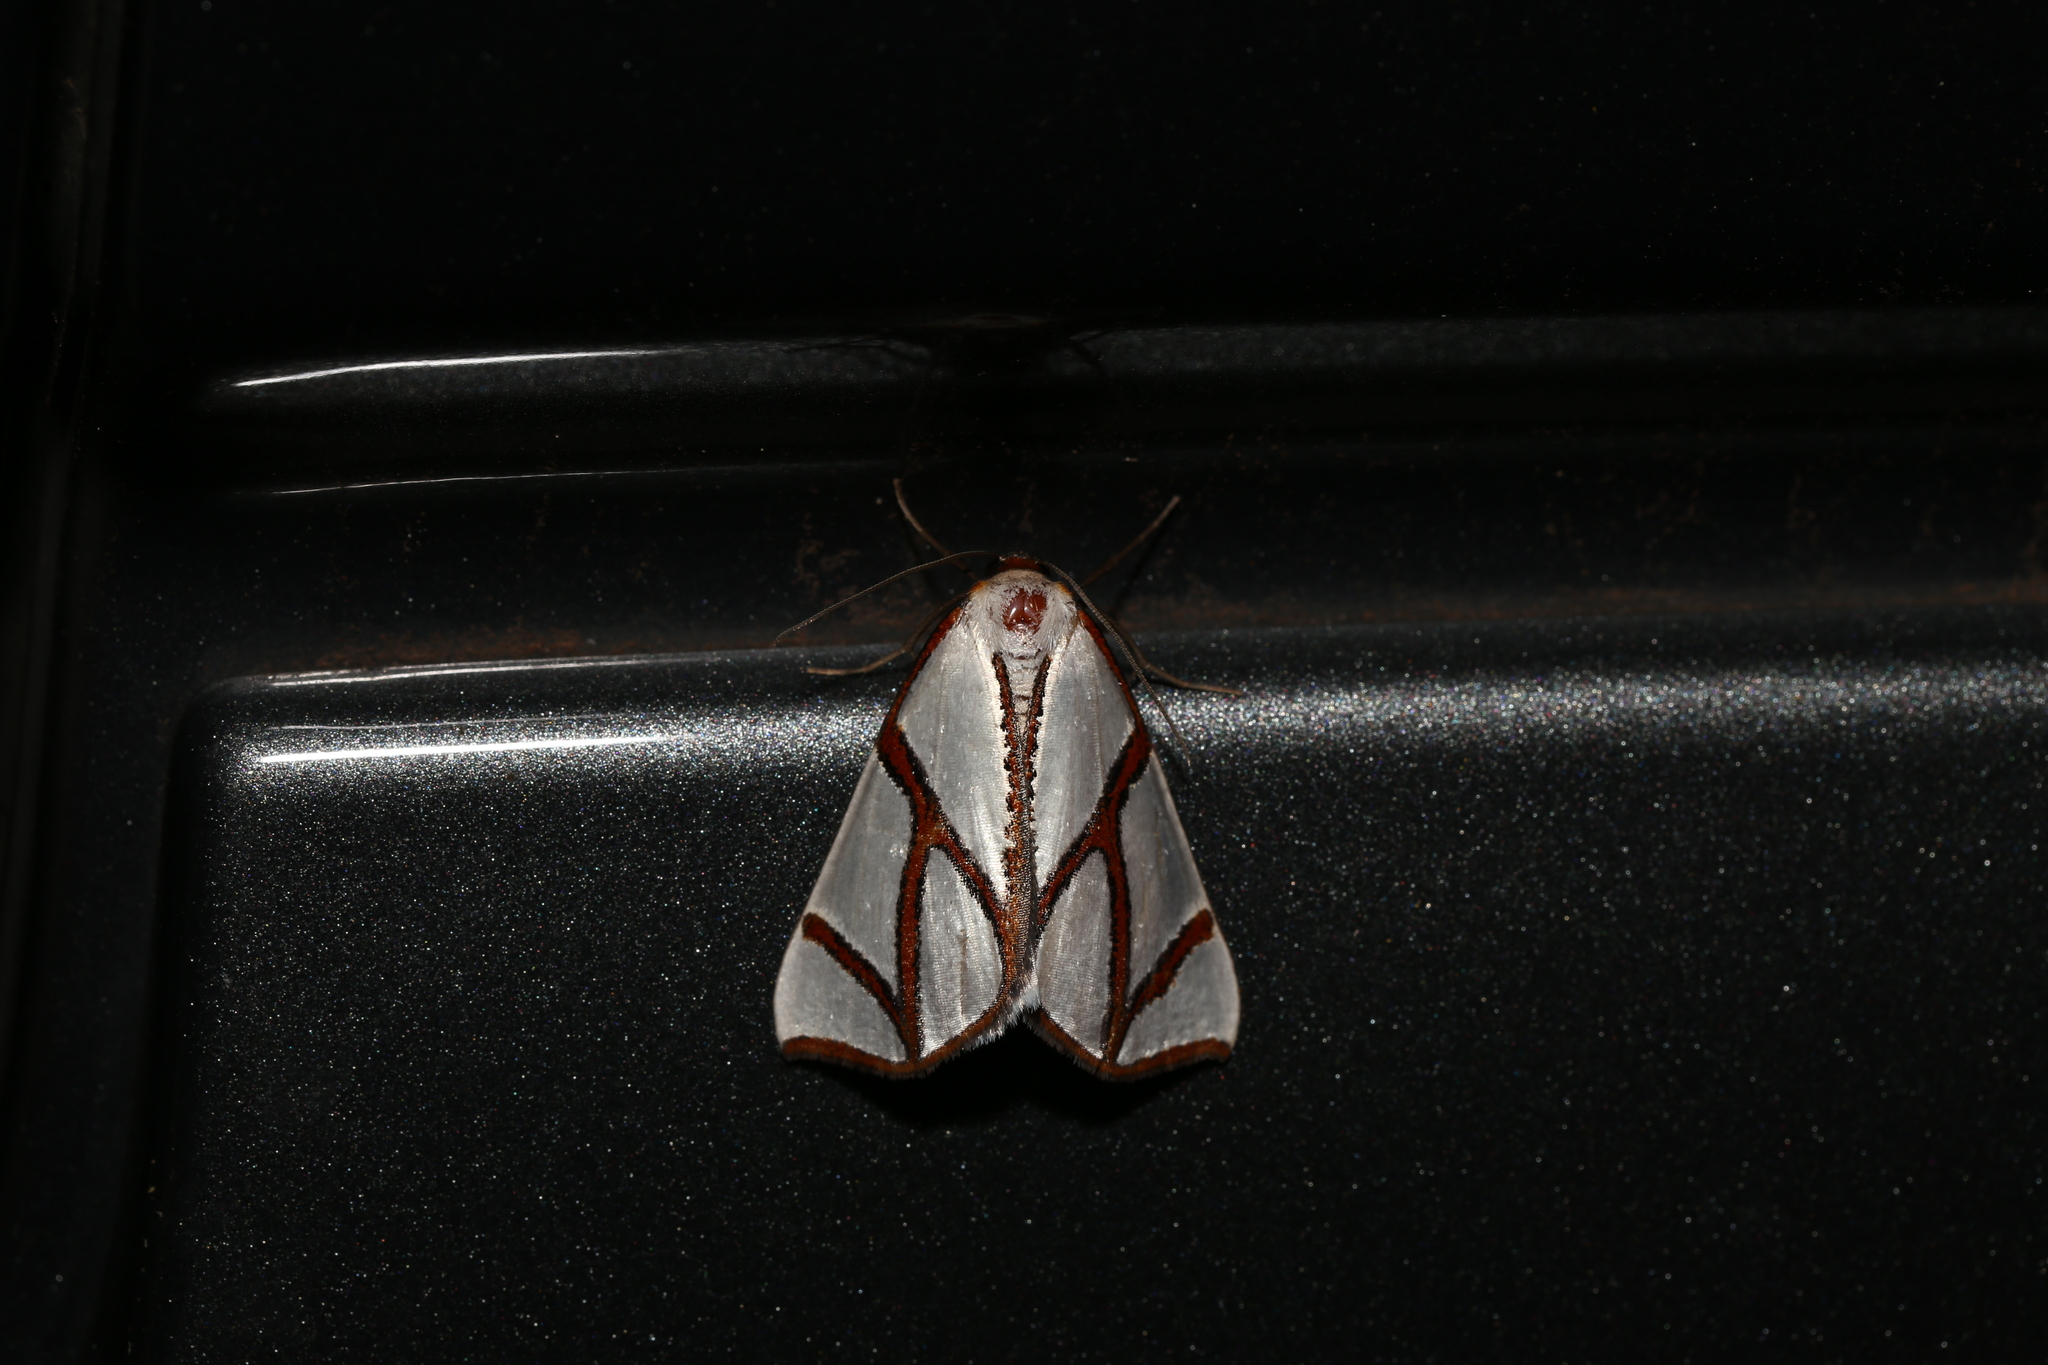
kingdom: Animalia
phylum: Arthropoda
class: Insecta
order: Lepidoptera
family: Geometridae
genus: Thalaina
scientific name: Thalaina clara
